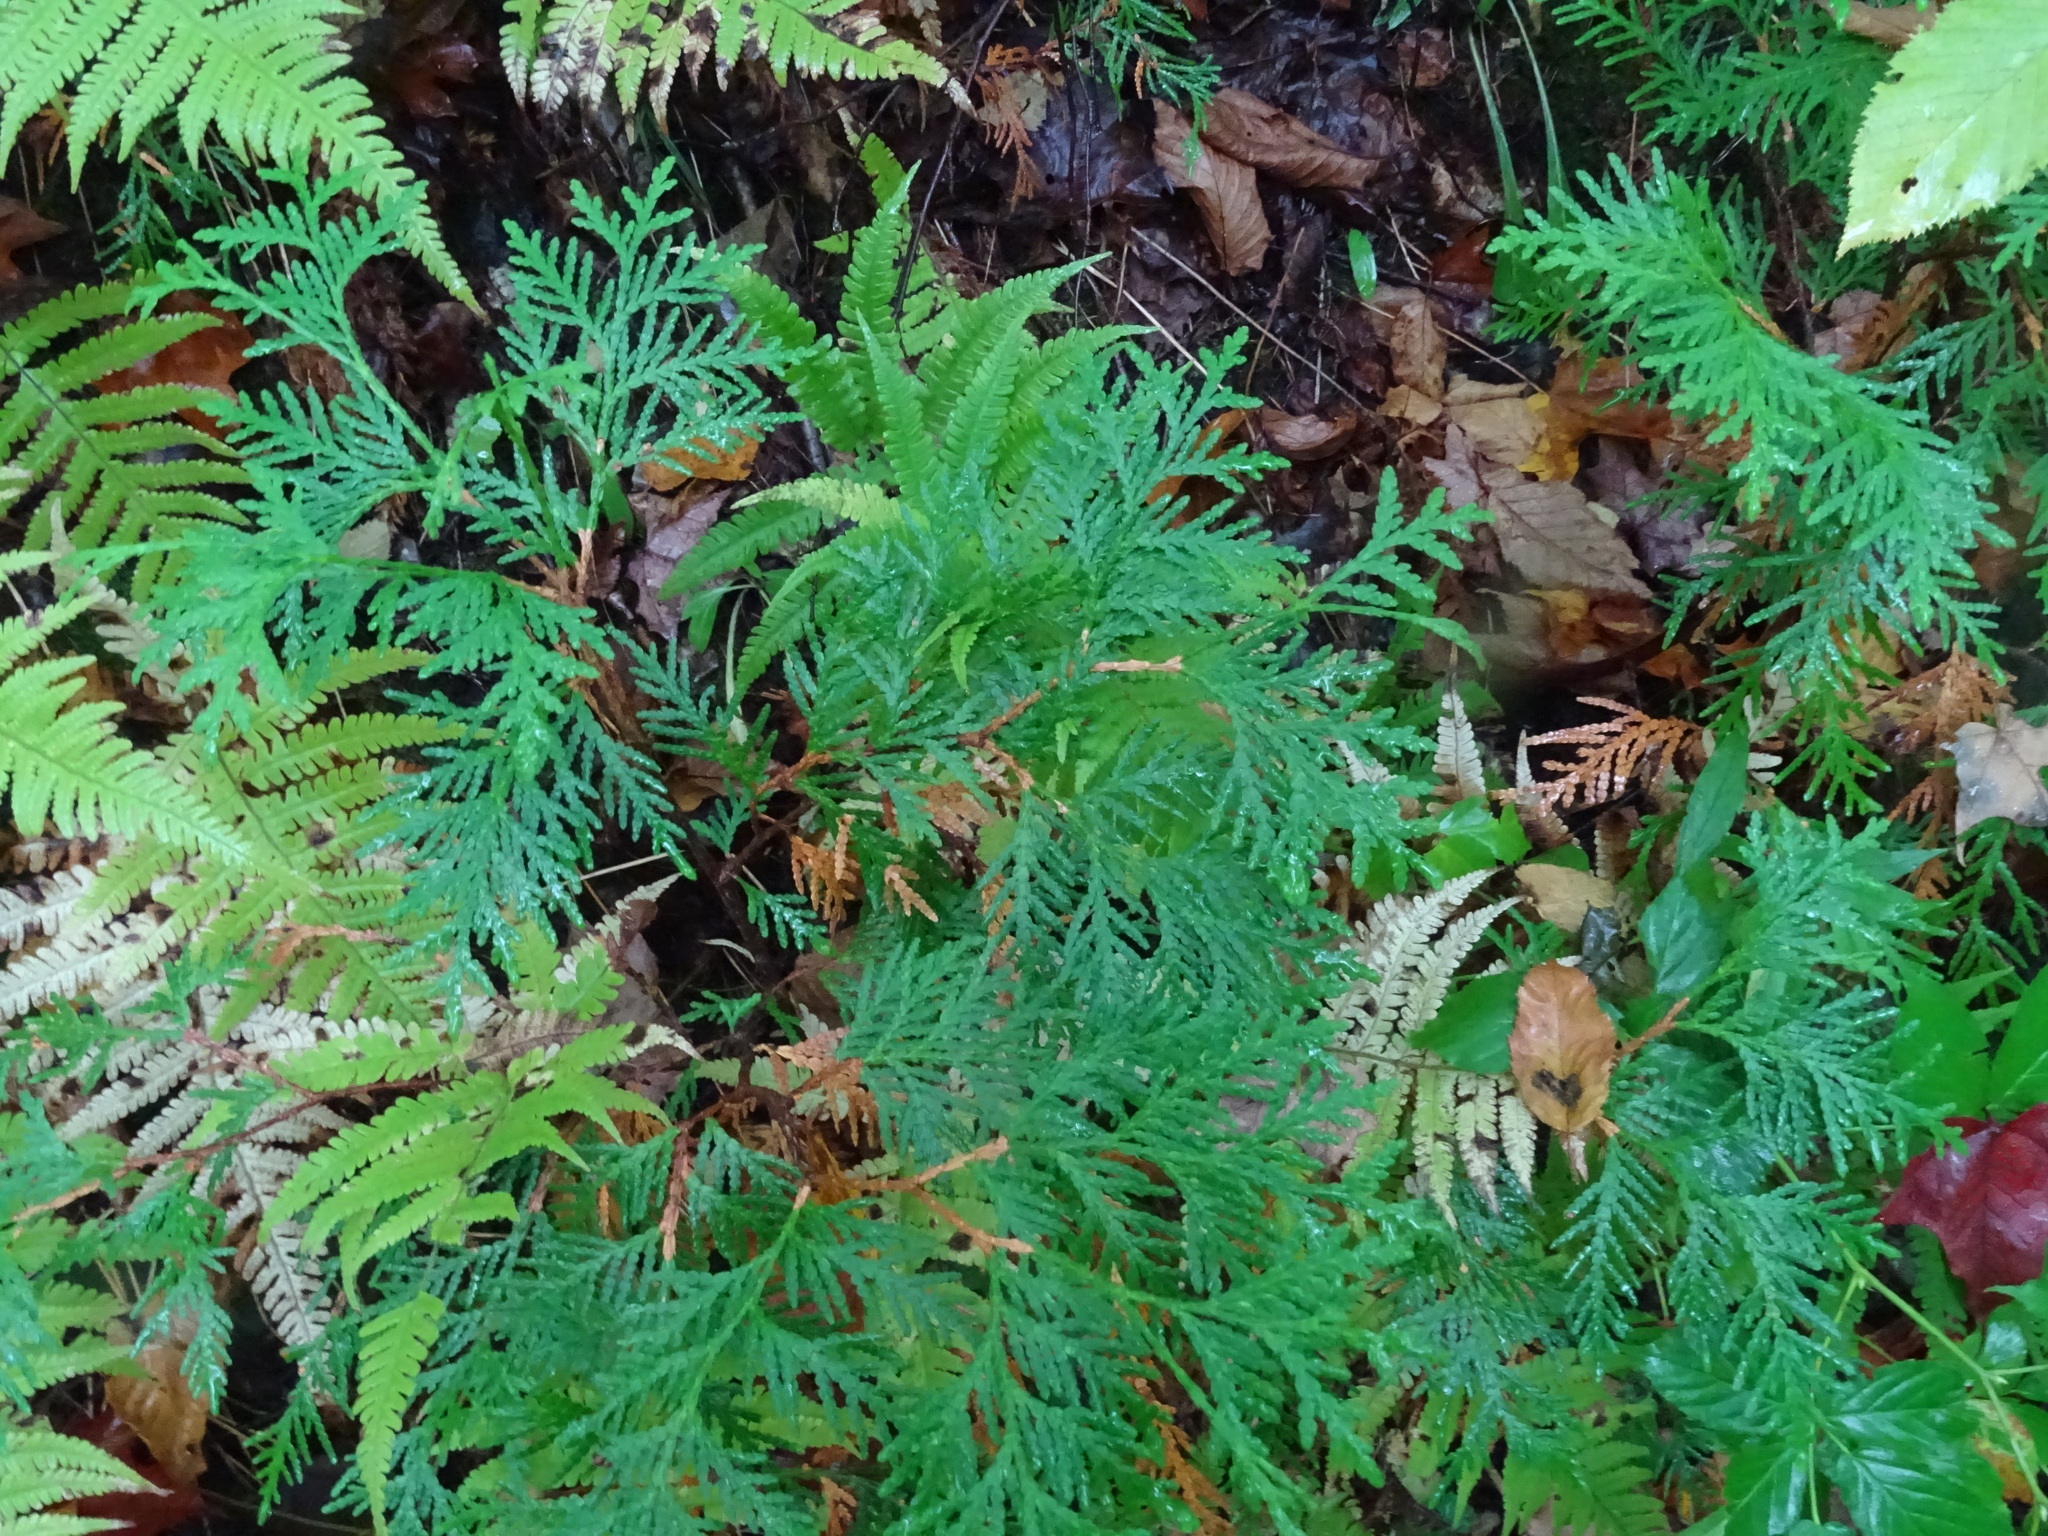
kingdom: Plantae
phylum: Tracheophyta
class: Pinopsida
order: Pinales
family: Cupressaceae
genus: Thuja
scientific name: Thuja occidentalis
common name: Northern white-cedar
